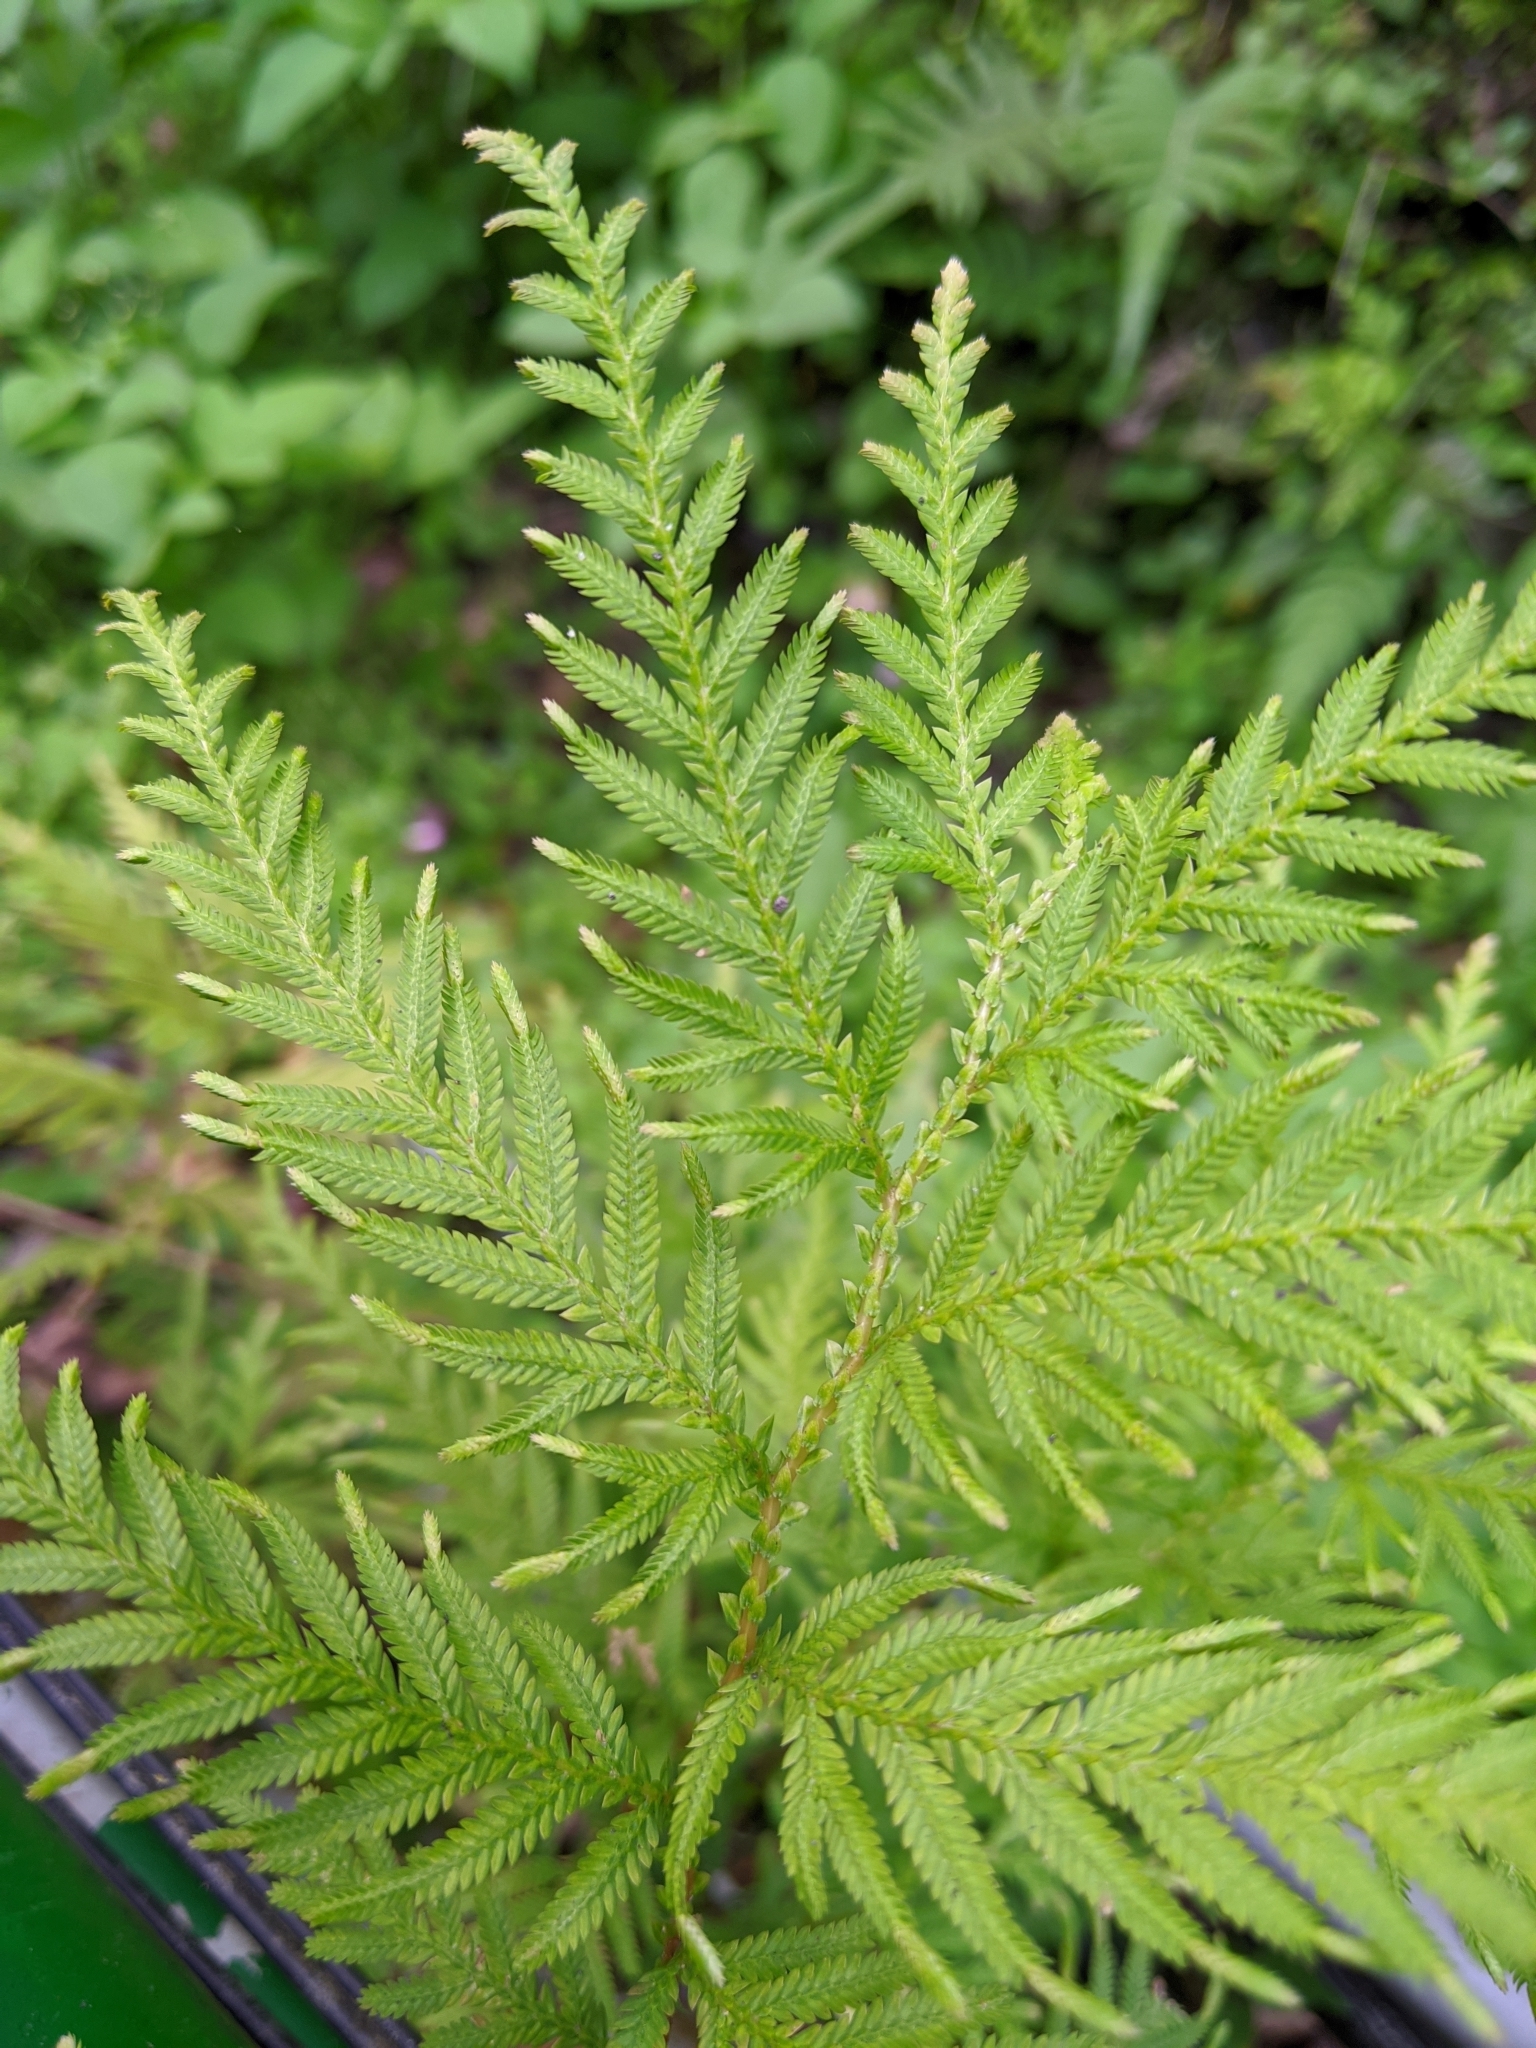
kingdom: Plantae
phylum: Tracheophyta
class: Lycopodiopsida
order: Selaginellales
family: Selaginellaceae
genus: Selaginella
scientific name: Selaginella delicatula
